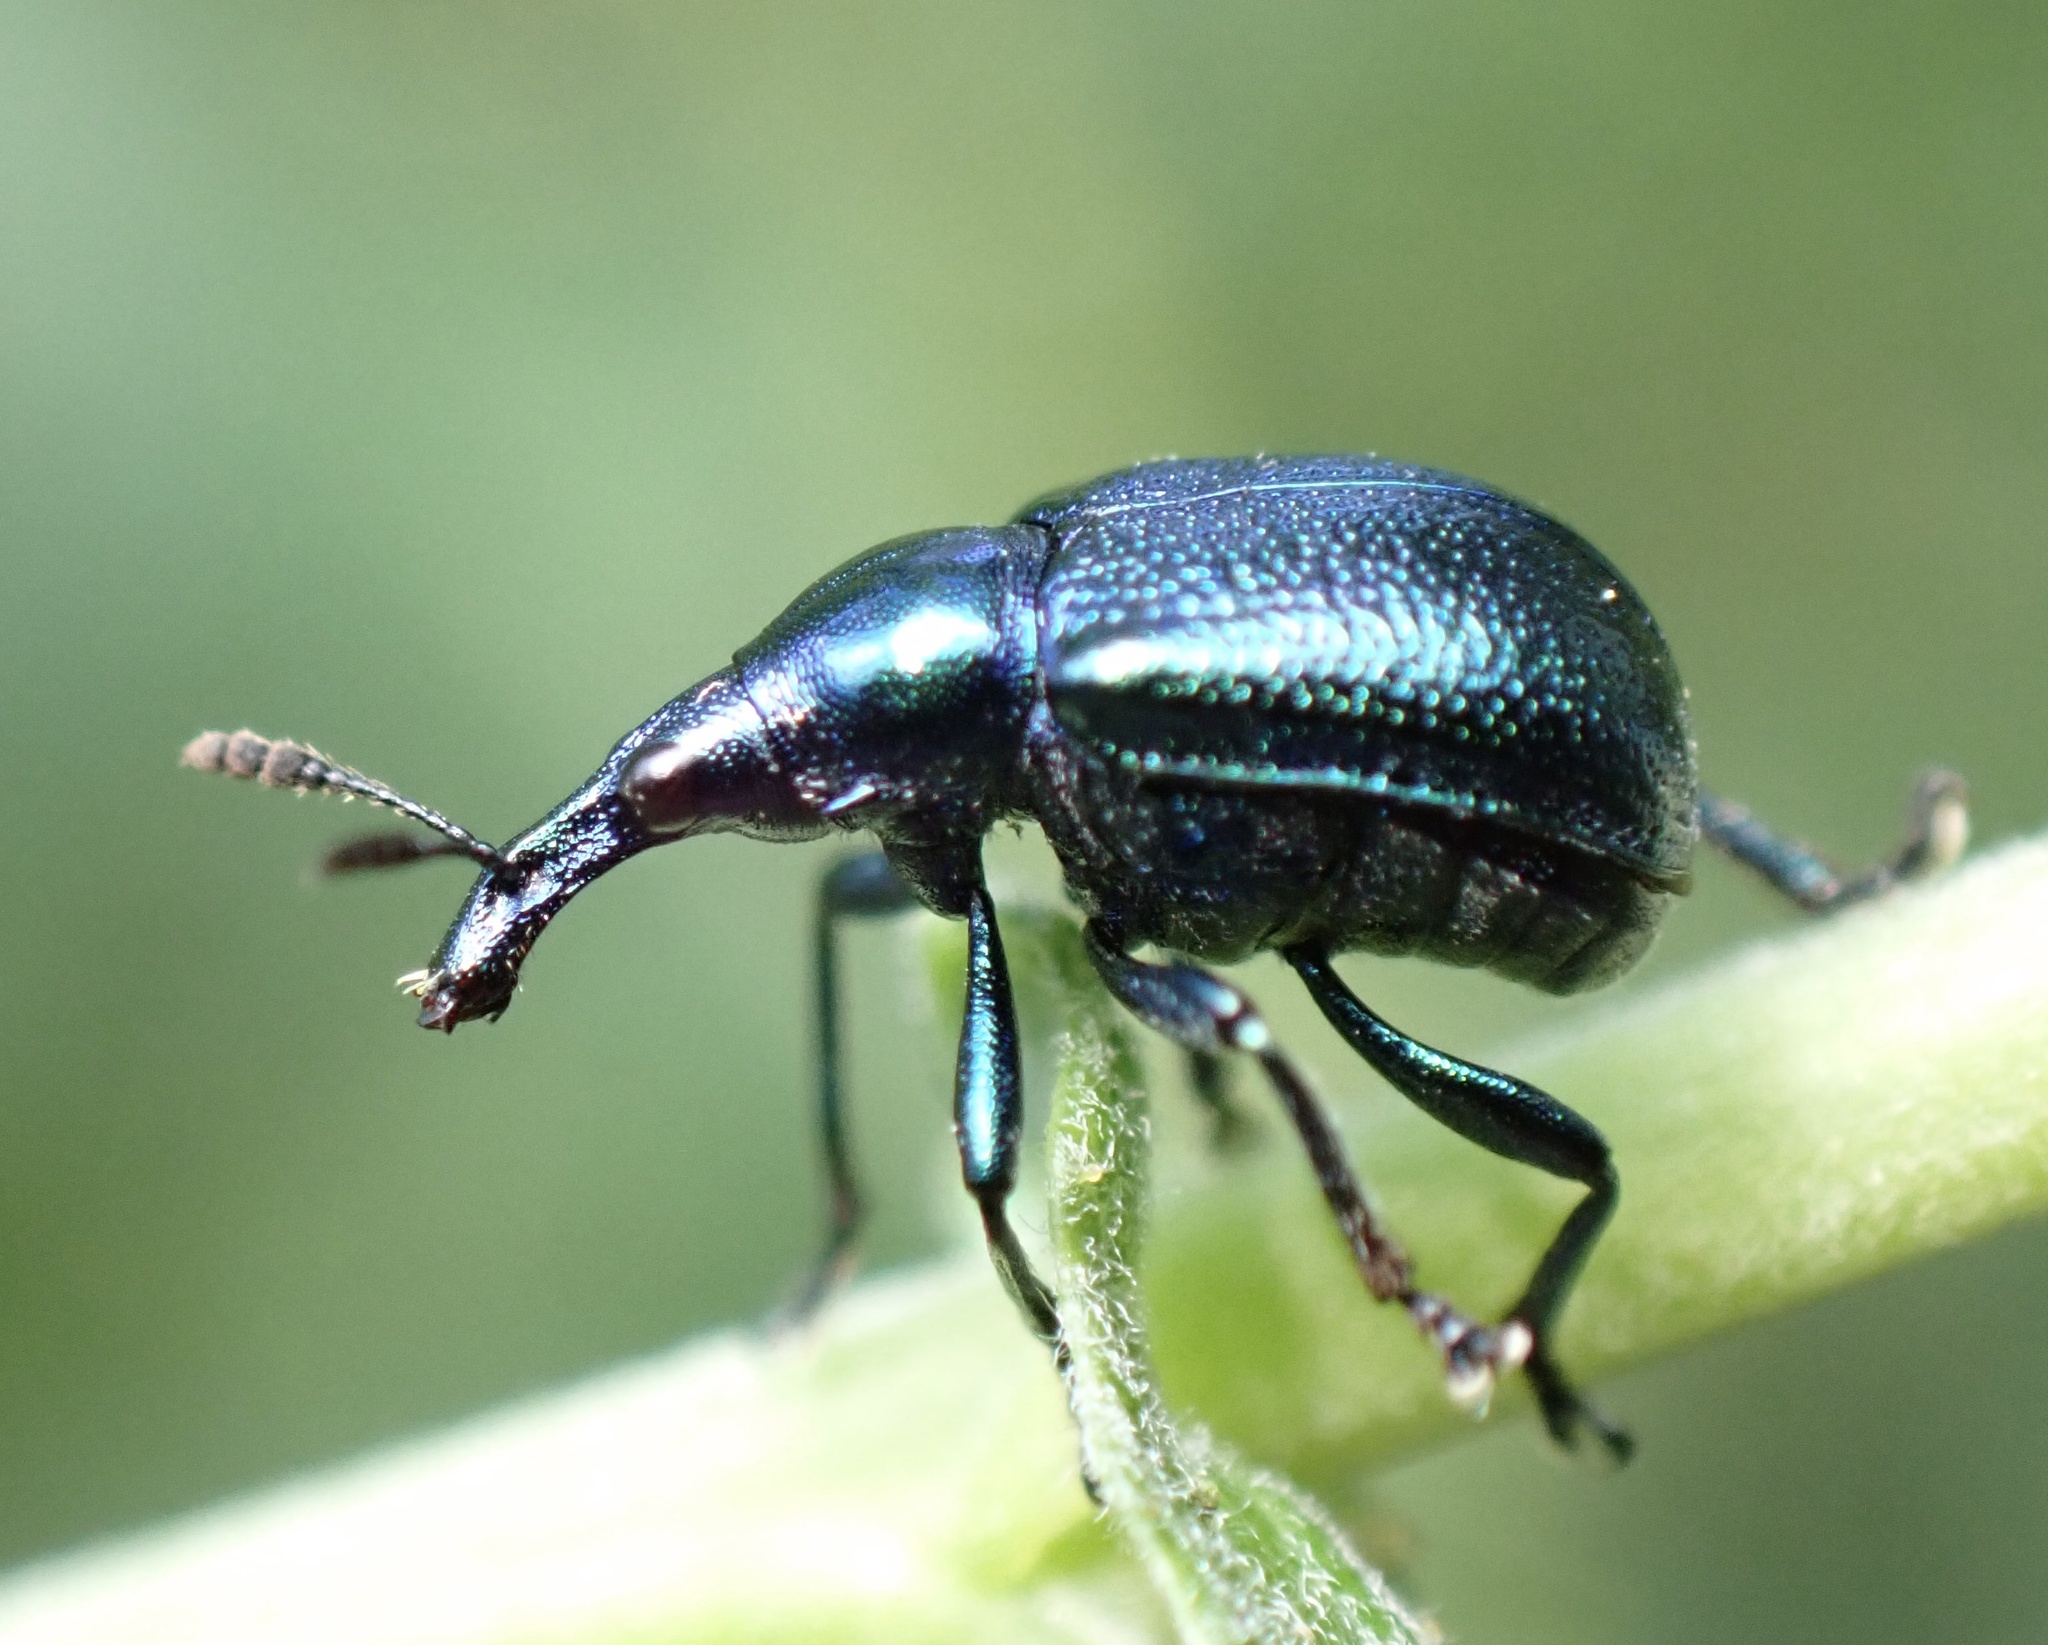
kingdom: Animalia
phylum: Arthropoda
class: Insecta
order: Coleoptera
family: Attelabidae
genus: Byctiscus
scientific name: Byctiscus betulae
